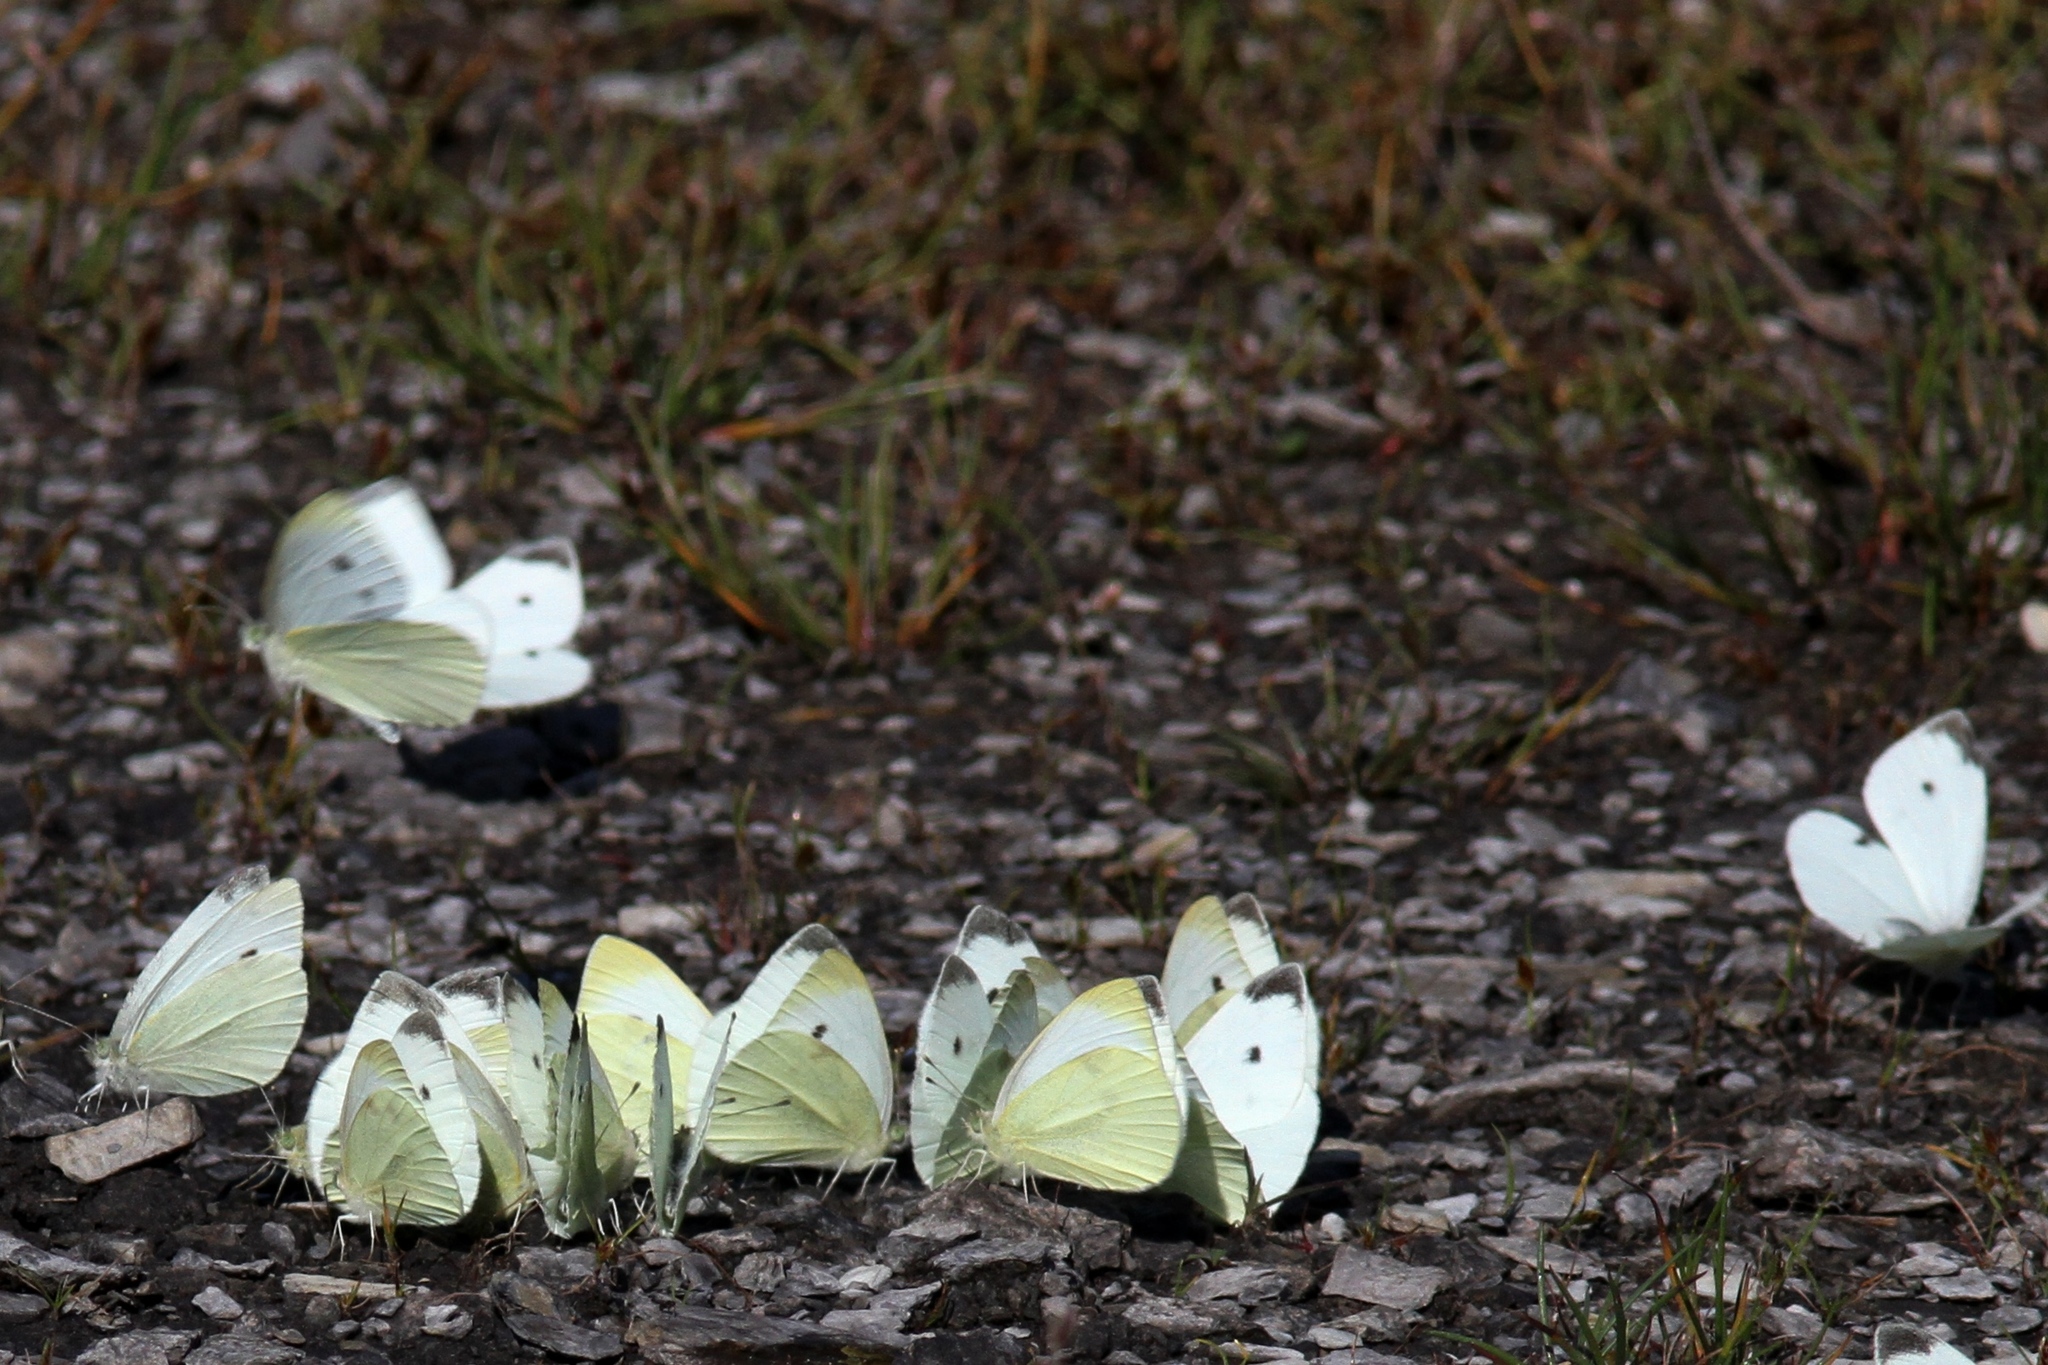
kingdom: Animalia
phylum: Arthropoda
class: Insecta
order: Lepidoptera
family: Pieridae
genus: Pieris
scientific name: Pieris rapae
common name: Small white
